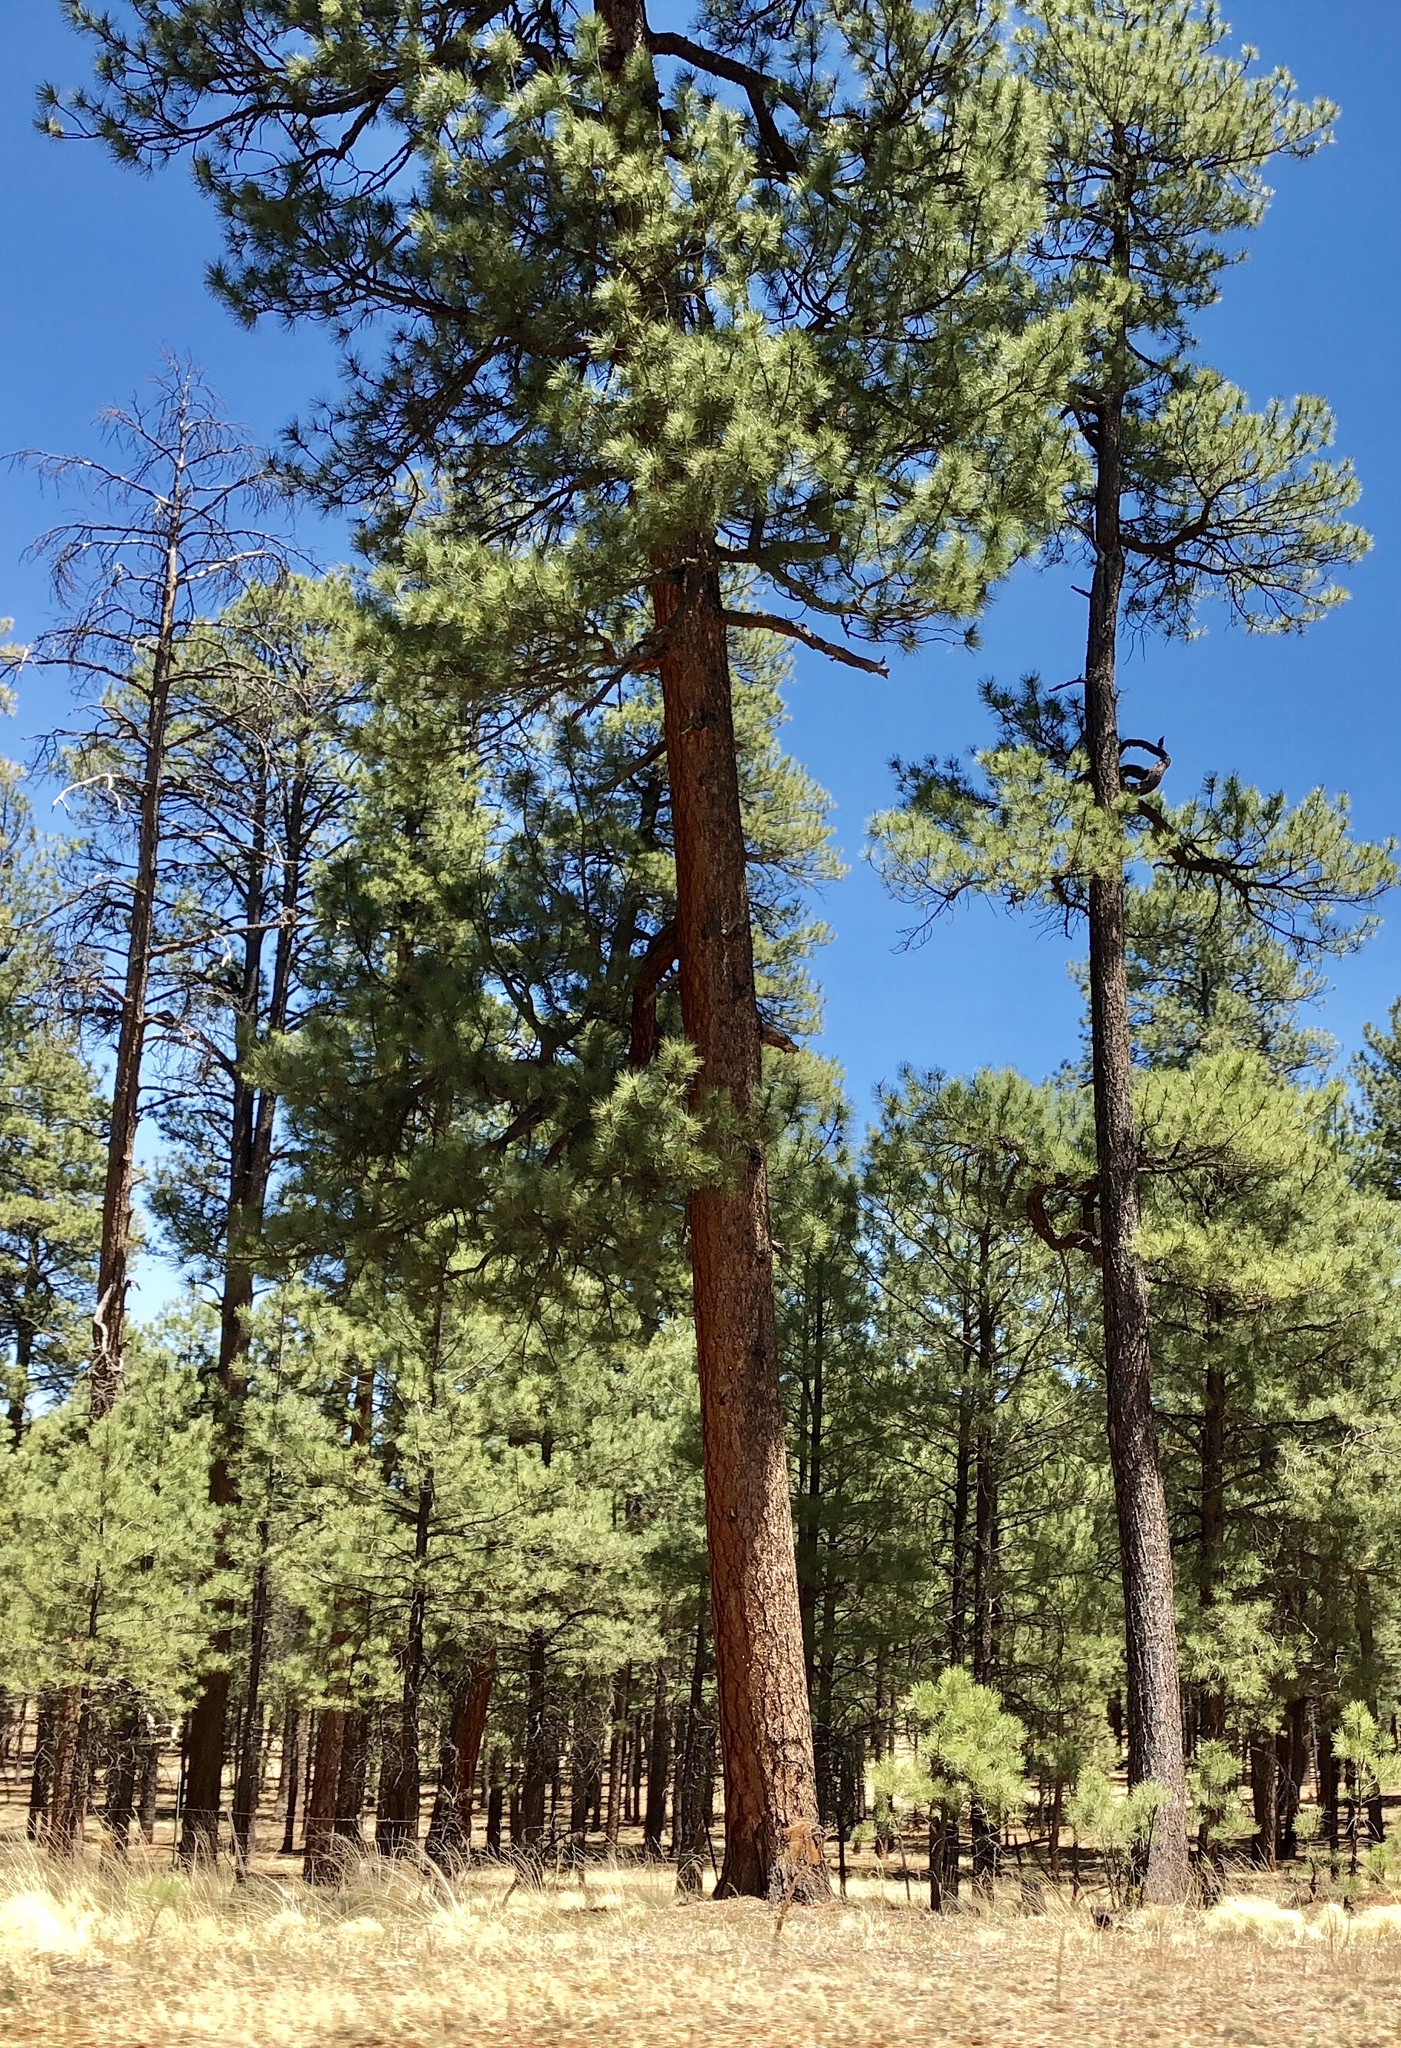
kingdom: Plantae
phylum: Tracheophyta
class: Pinopsida
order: Pinales
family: Pinaceae
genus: Pinus
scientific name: Pinus ponderosa
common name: Western yellow-pine
